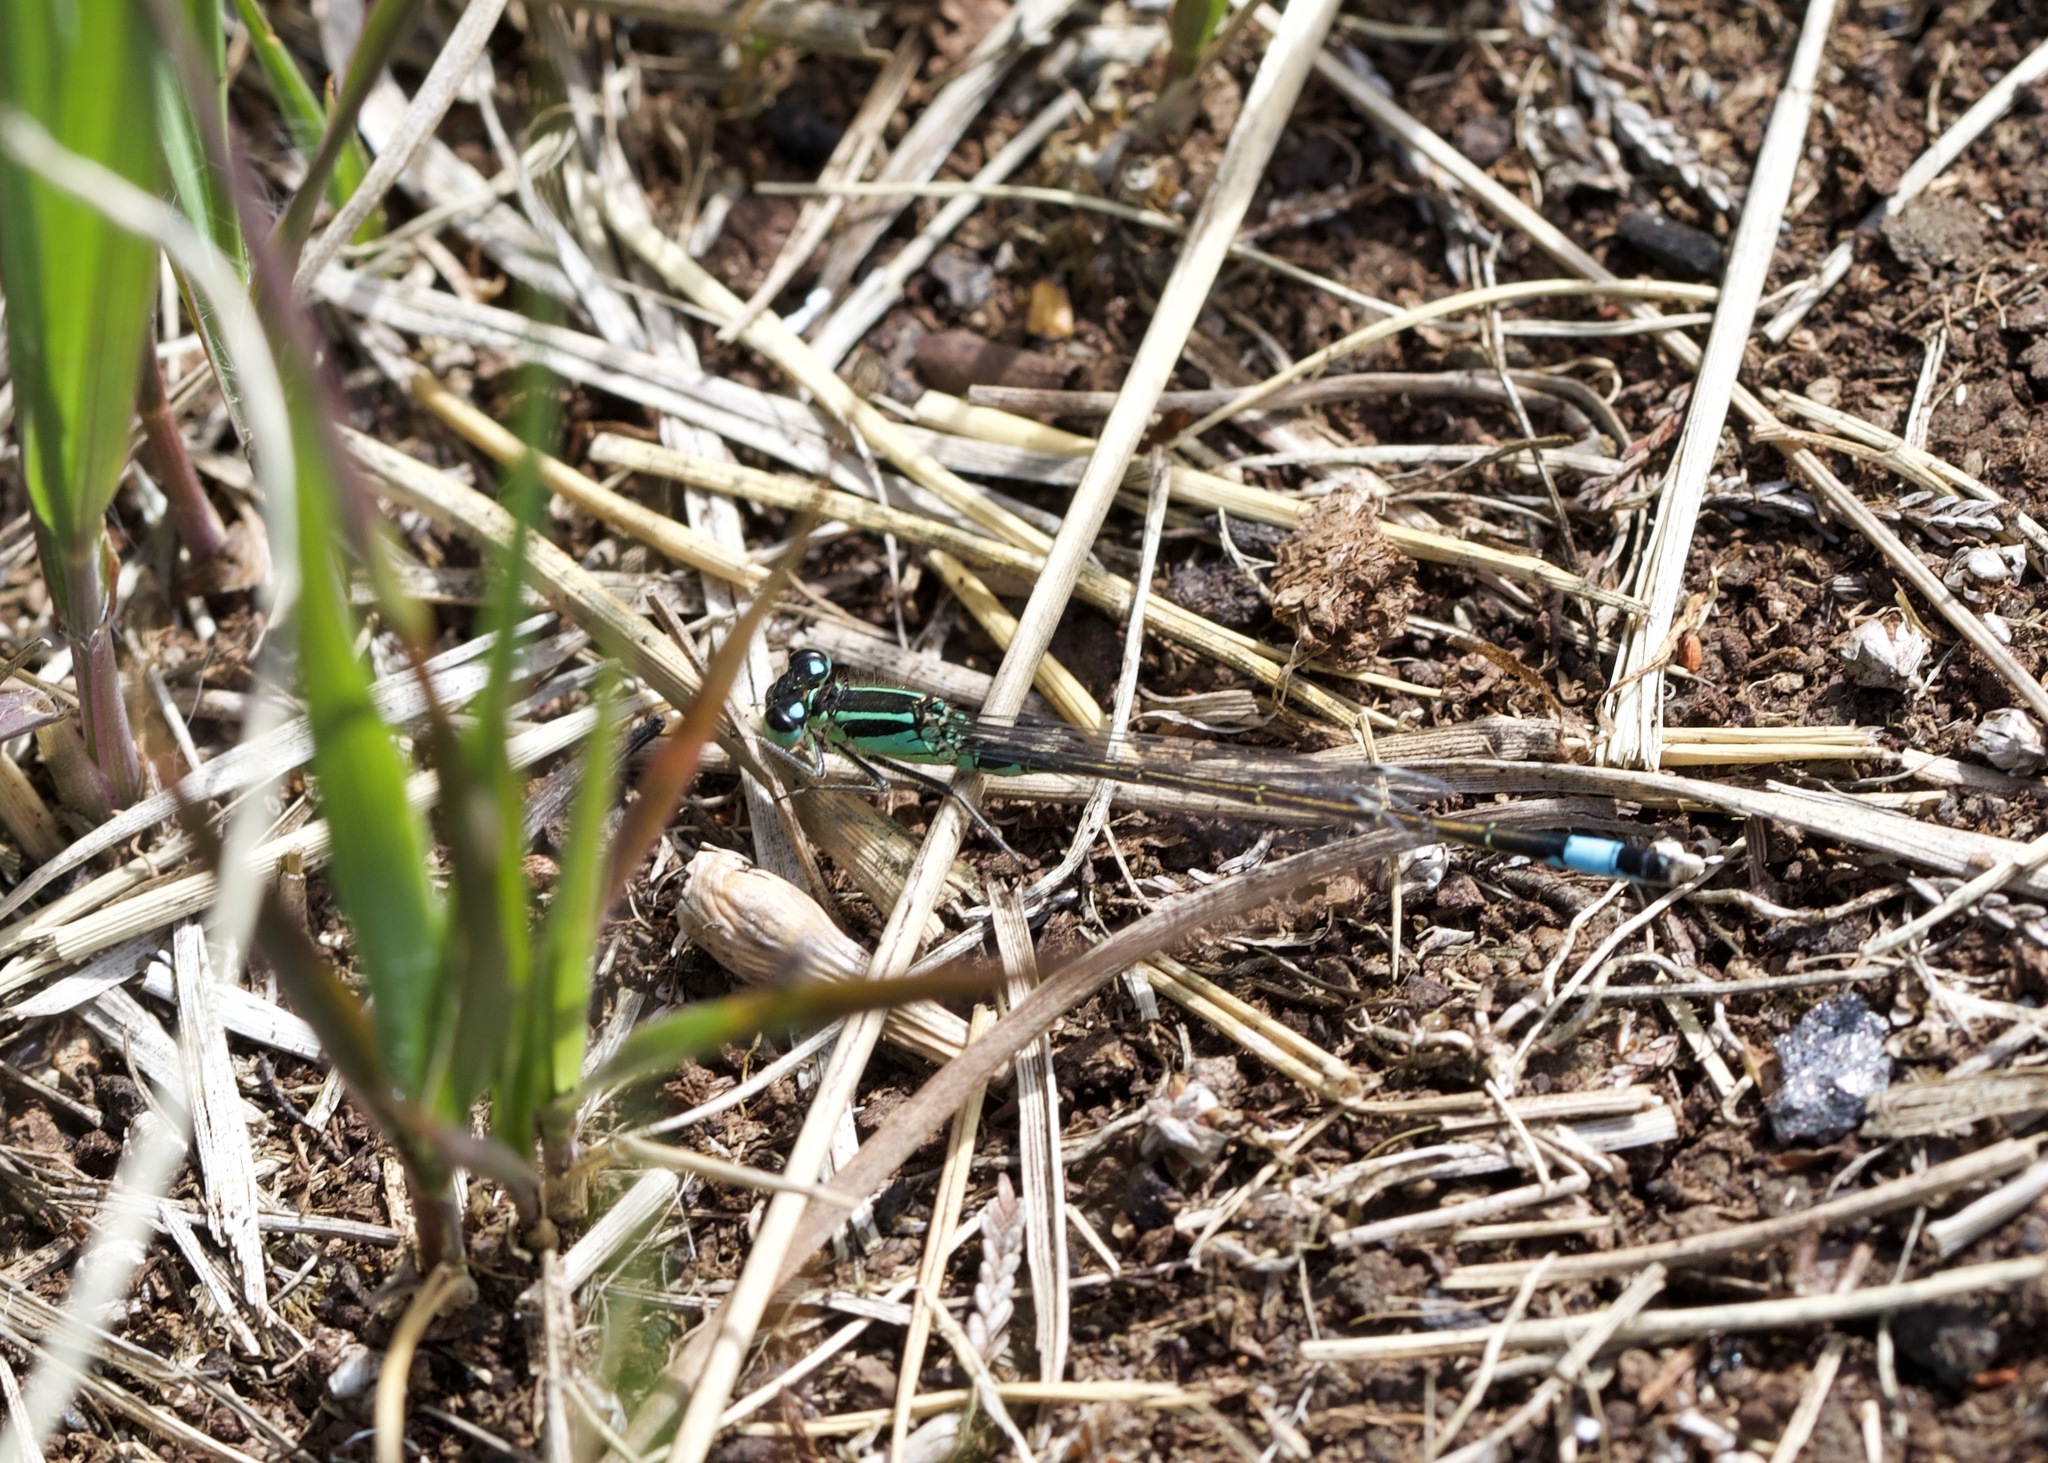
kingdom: Animalia
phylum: Arthropoda
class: Insecta
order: Odonata
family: Coenagrionidae
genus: Ischnura
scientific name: Ischnura elegans
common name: Blue-tailed damselfly
